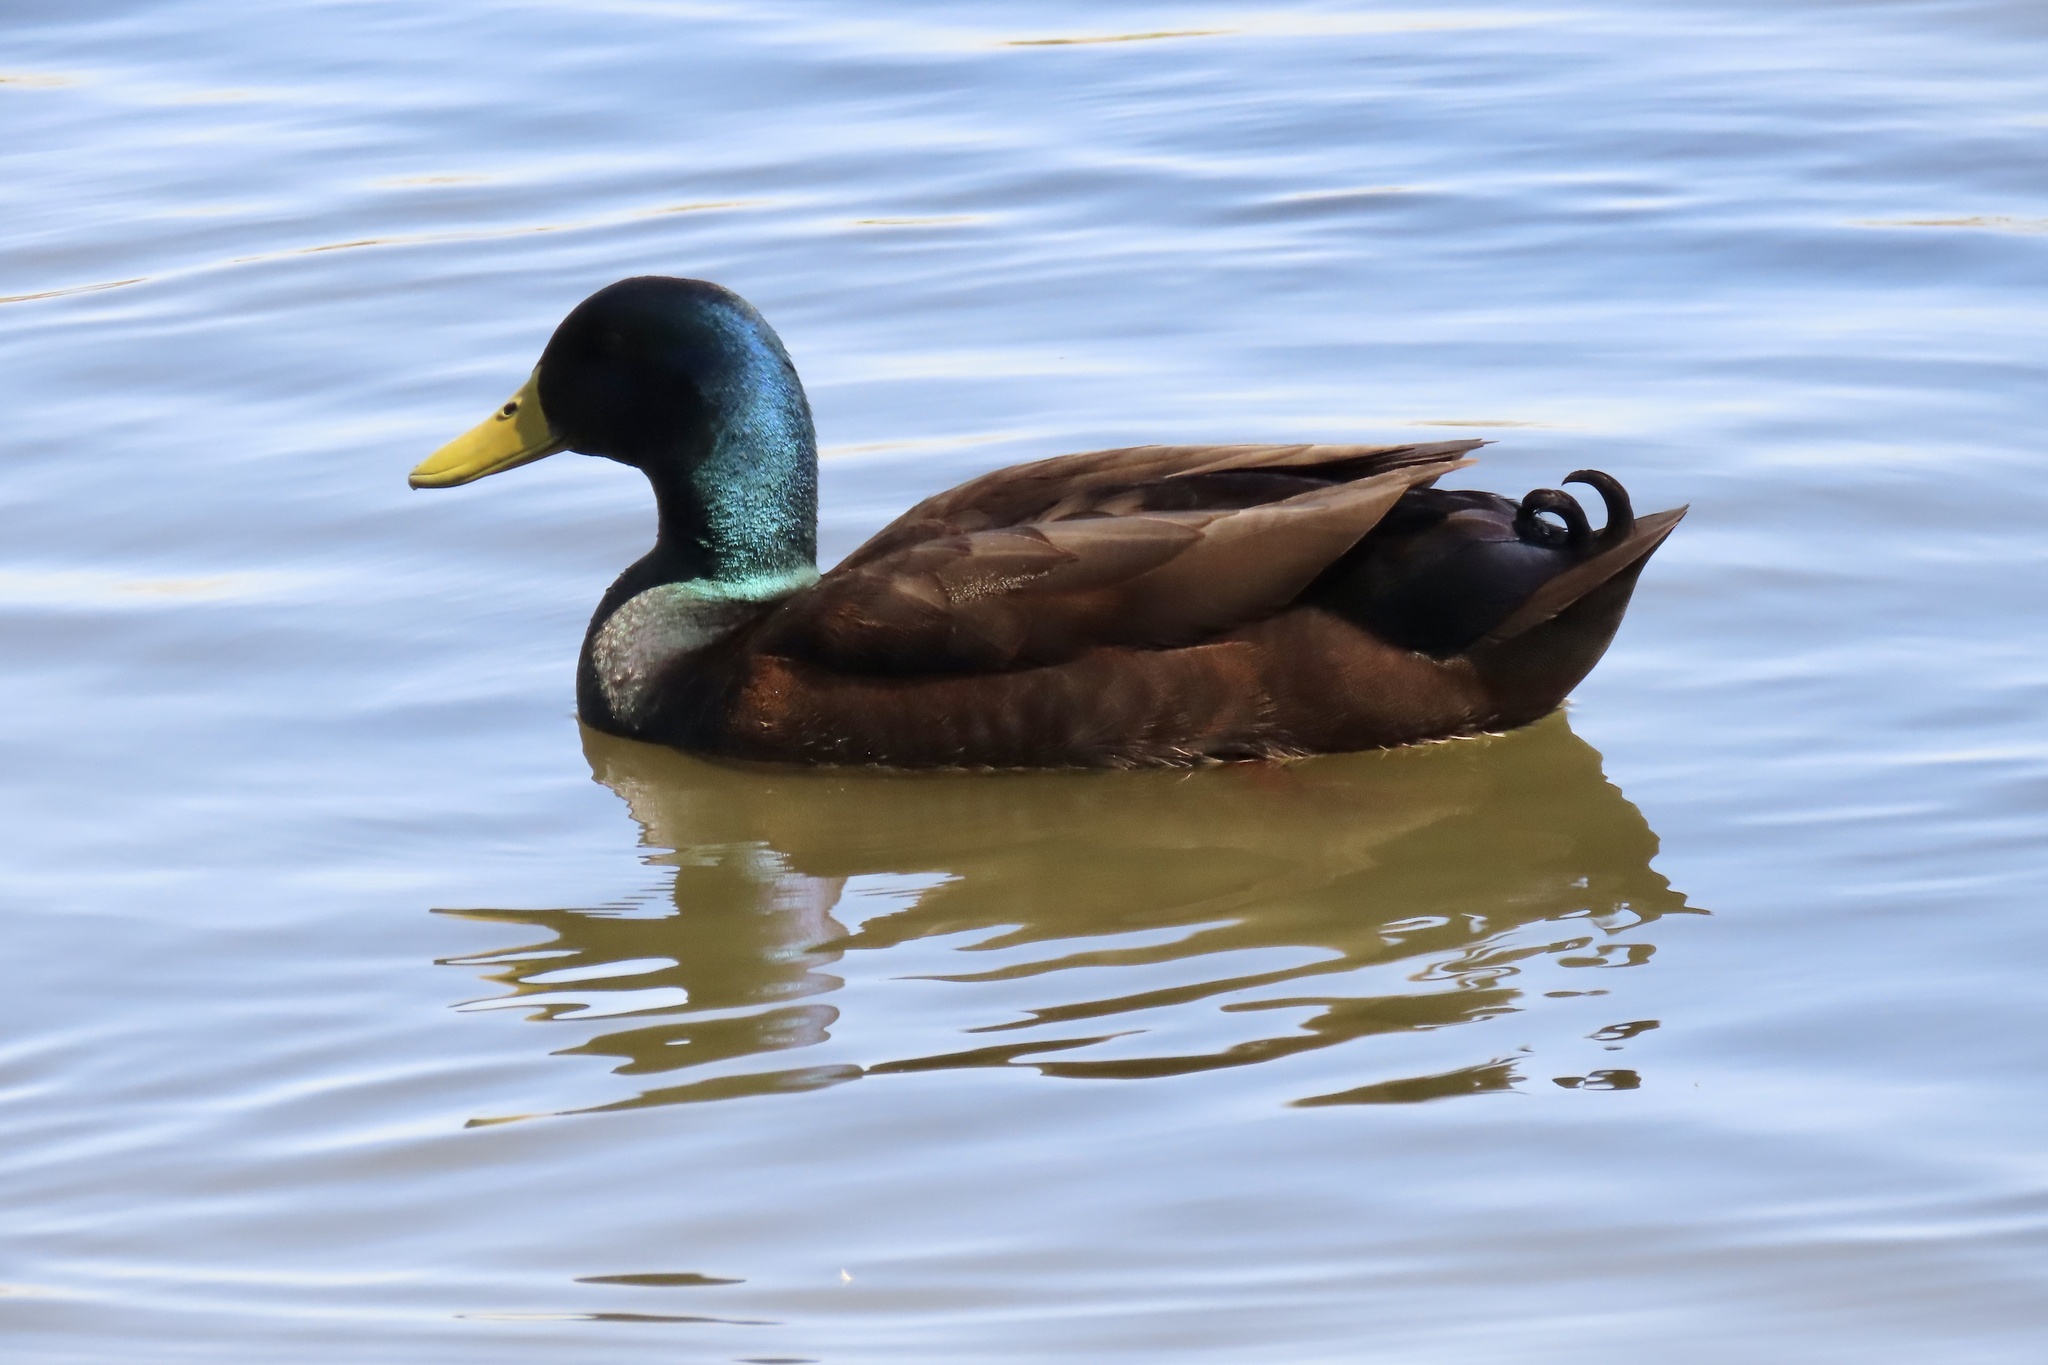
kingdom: Animalia
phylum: Chordata
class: Aves
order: Anseriformes
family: Anatidae
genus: Anas
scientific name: Anas platyrhynchos
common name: Mallard
